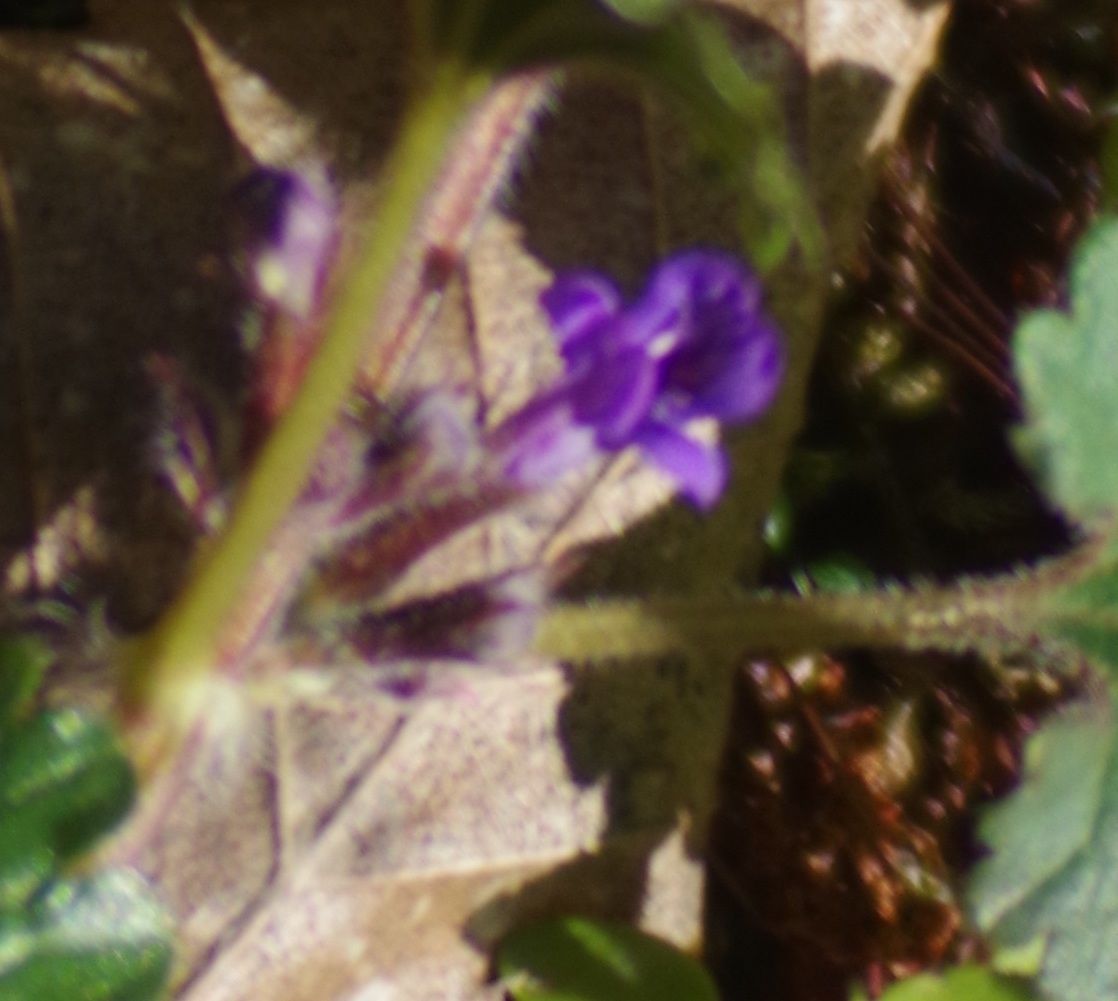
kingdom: Plantae
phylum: Tracheophyta
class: Magnoliopsida
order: Lamiales
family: Lamiaceae
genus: Glechoma
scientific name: Glechoma hederacea
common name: Ground ivy
